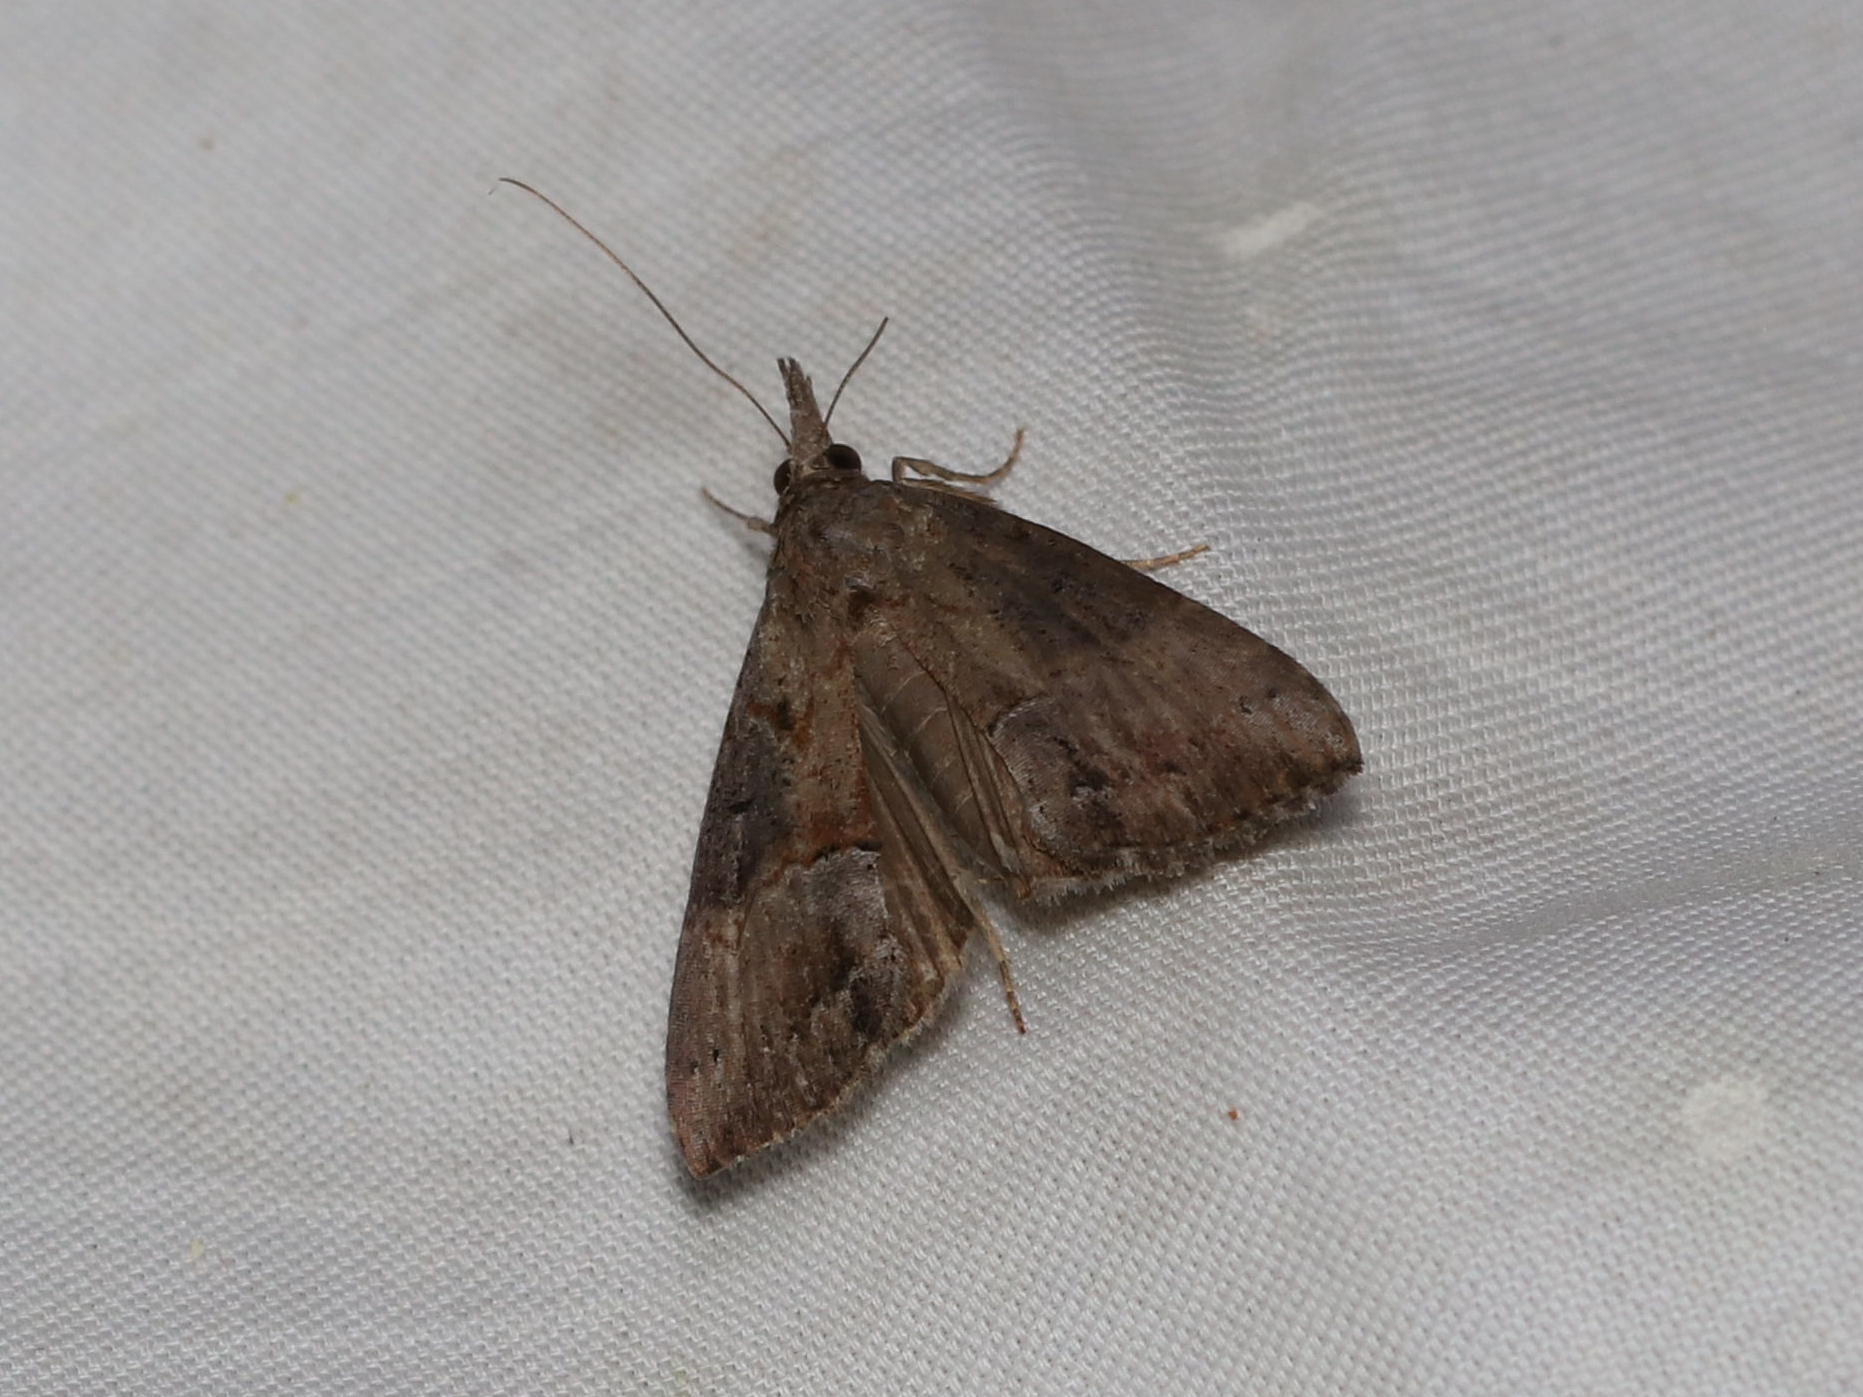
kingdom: Animalia
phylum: Arthropoda
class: Insecta
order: Lepidoptera
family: Erebidae
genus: Hypena
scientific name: Hypena scabra
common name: Green cloverworm
